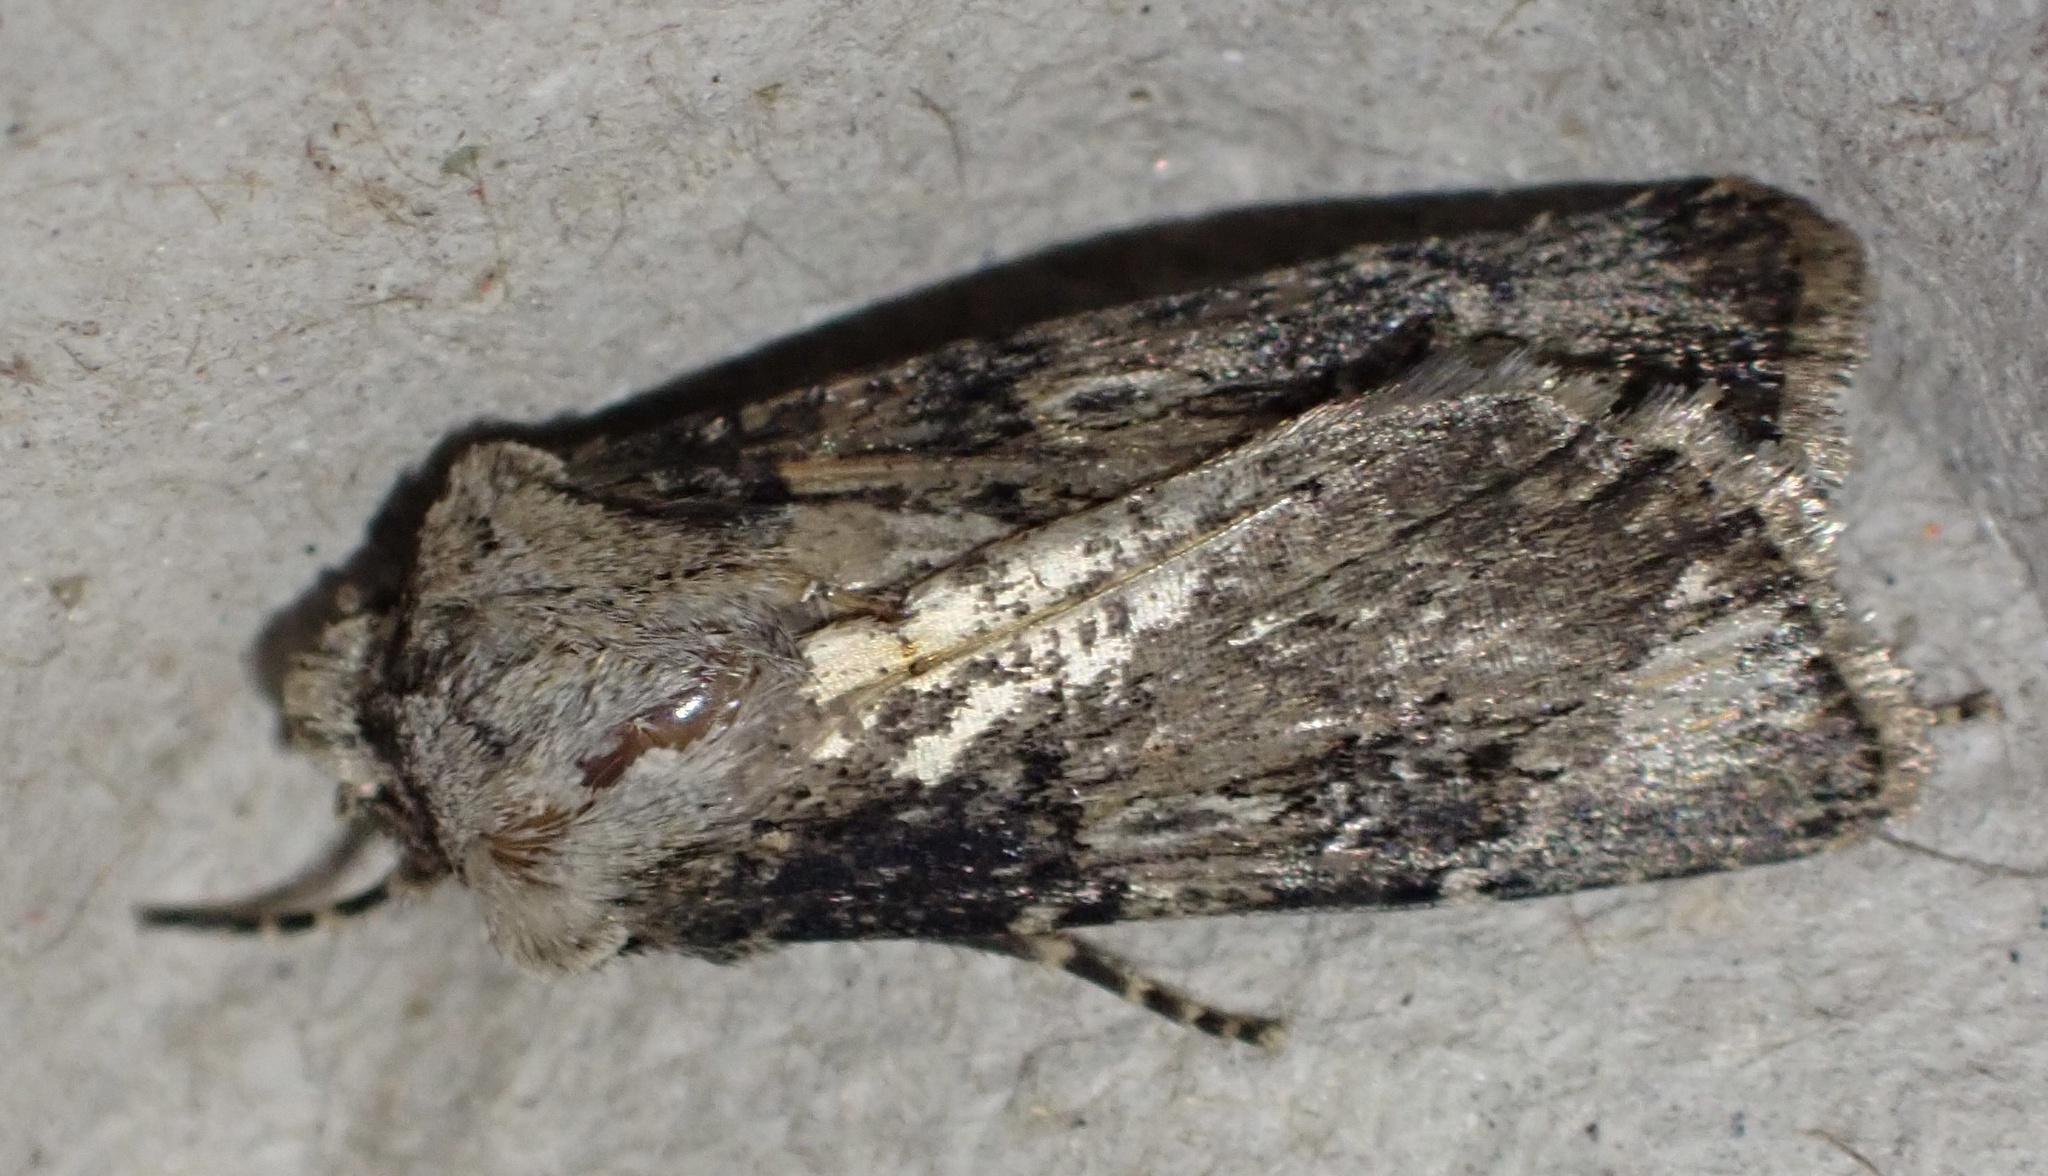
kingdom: Animalia
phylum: Arthropoda
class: Insecta
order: Lepidoptera
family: Noctuidae
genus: Agrotis
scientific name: Agrotis puta
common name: Shuttle-shaped dart
